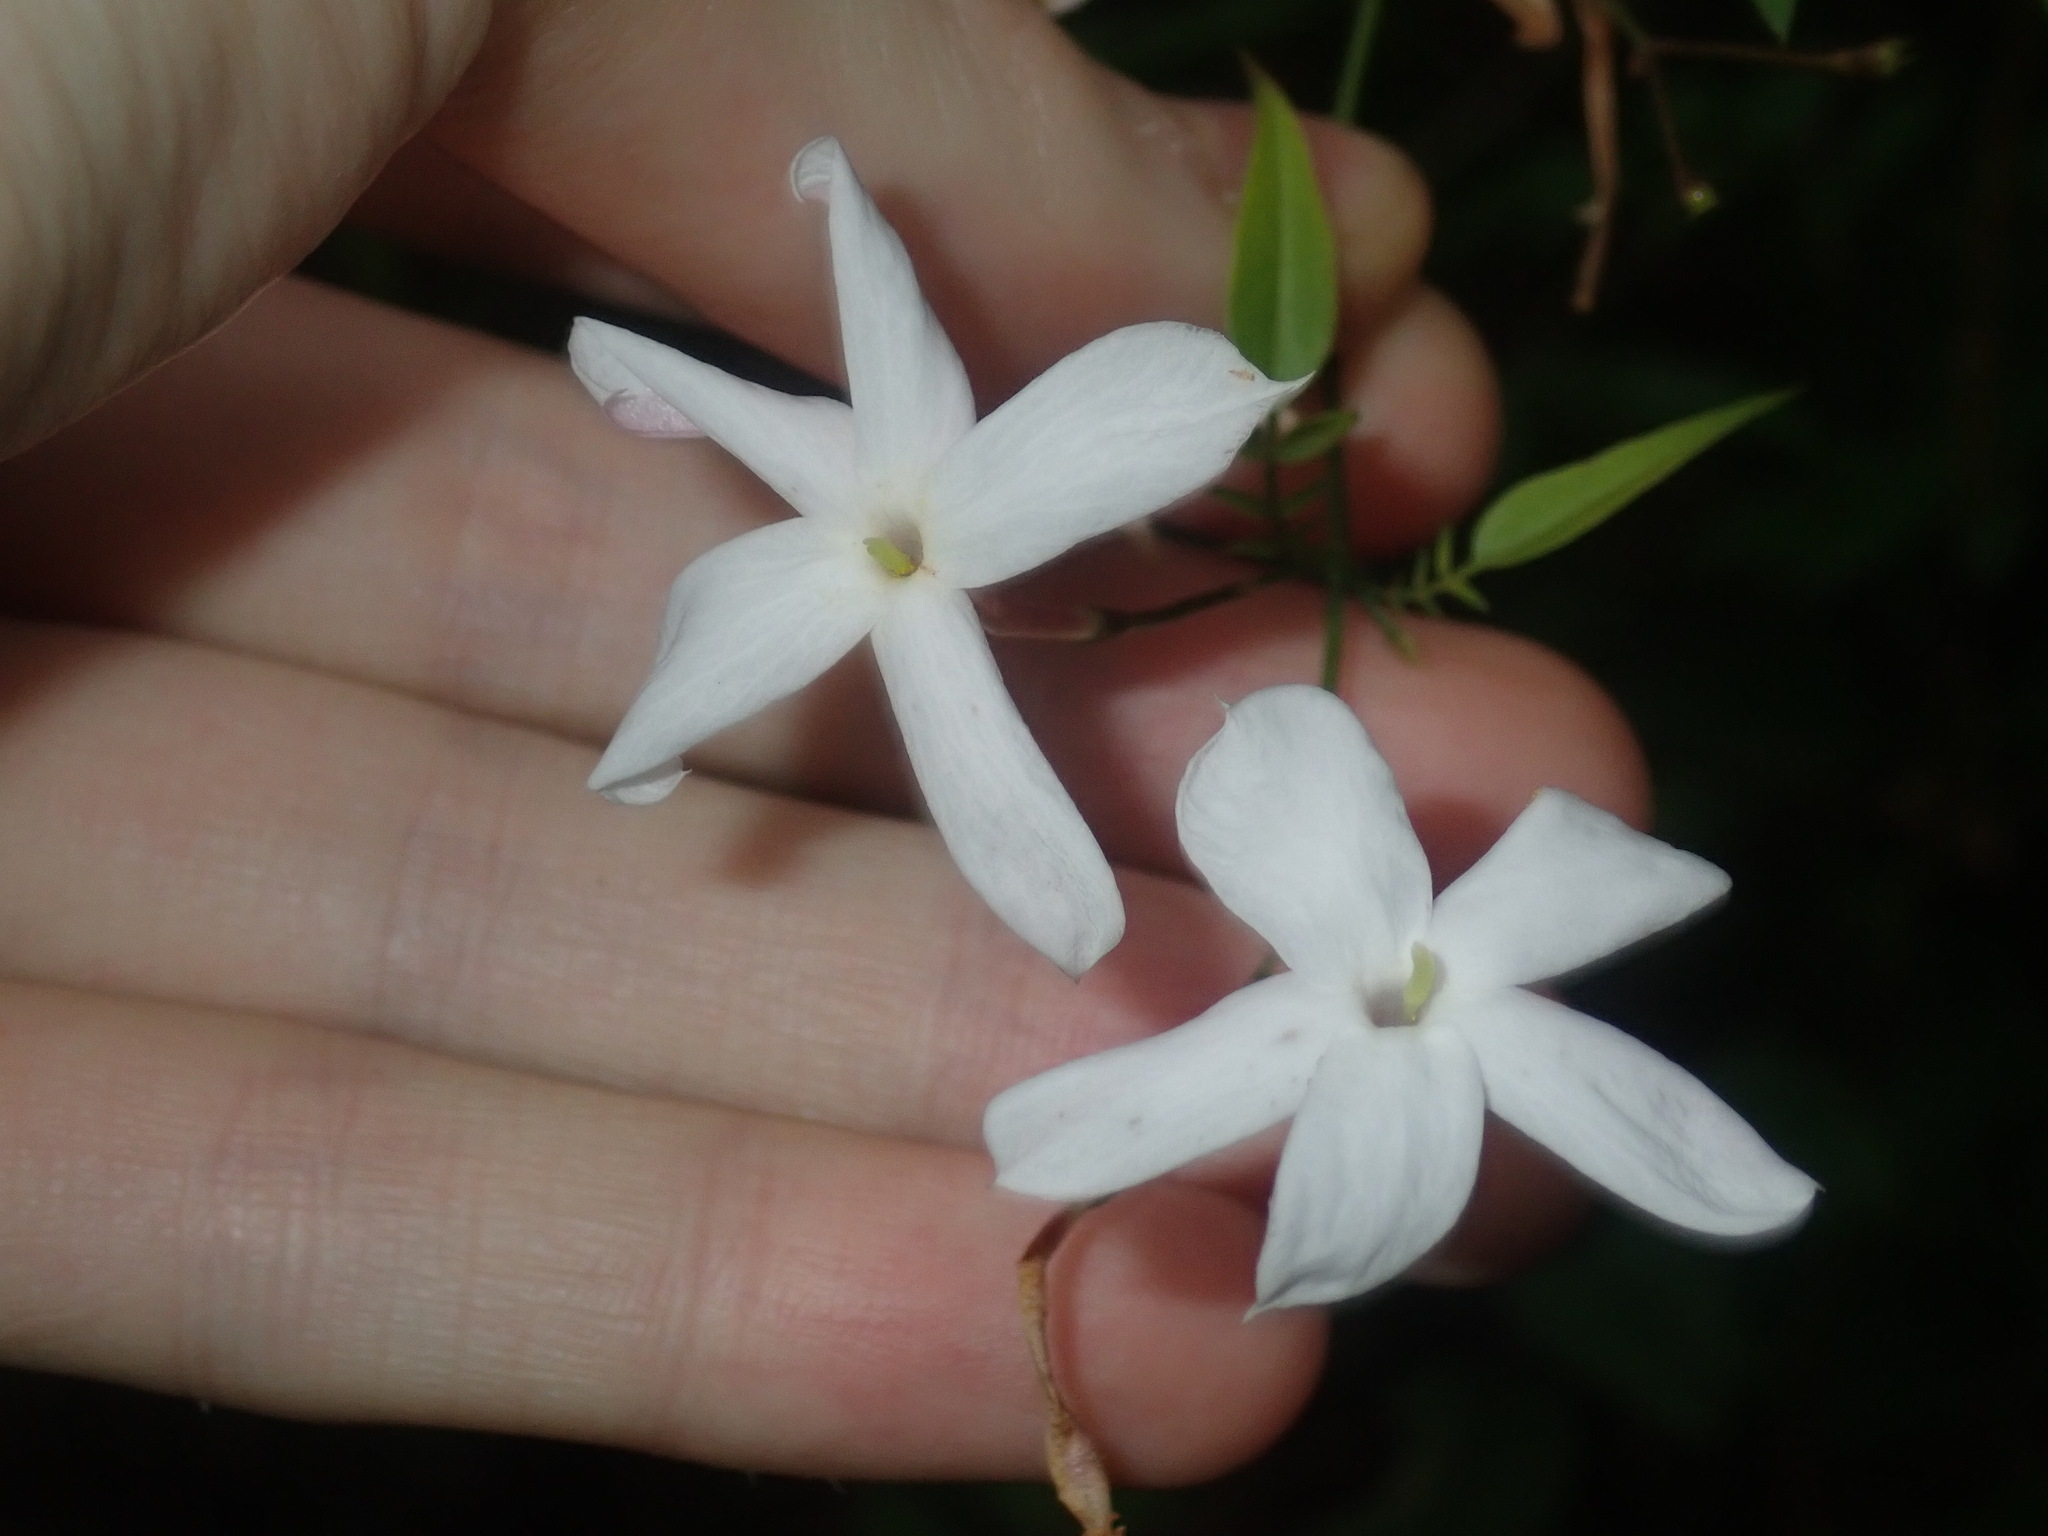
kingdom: Plantae
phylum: Tracheophyta
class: Magnoliopsida
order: Lamiales
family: Oleaceae
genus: Jasminum
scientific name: Jasminum polyanthum
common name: Pink jasmine
